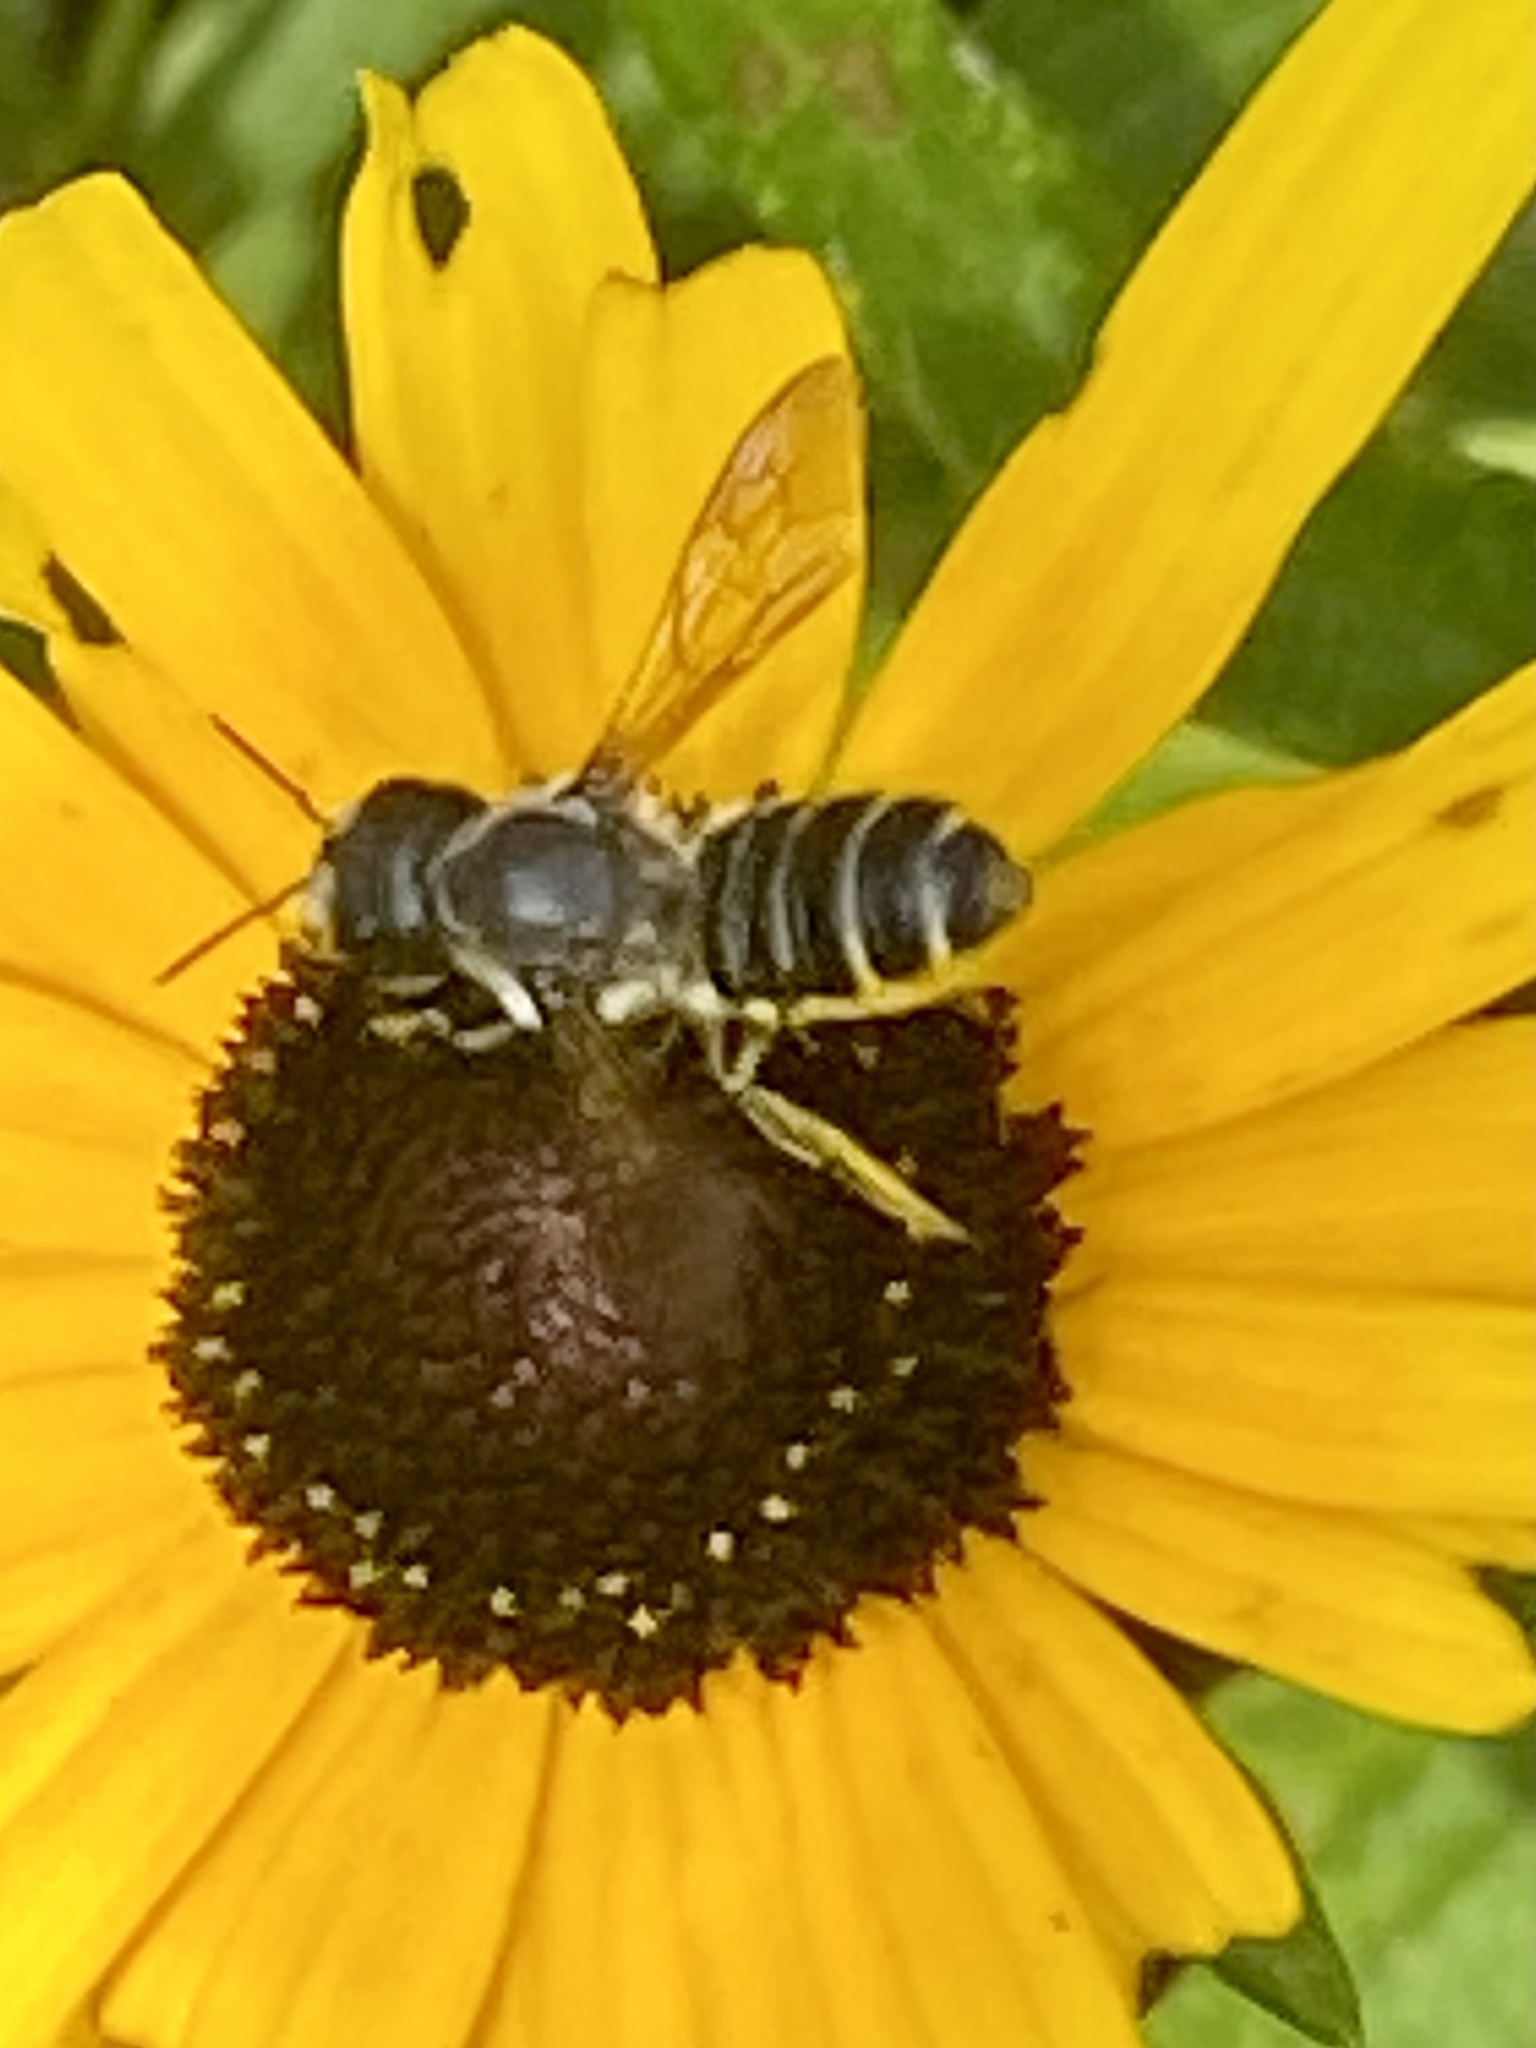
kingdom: Animalia
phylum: Arthropoda
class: Insecta
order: Hymenoptera
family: Megachilidae
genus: Megachile
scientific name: Megachile pugnata
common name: Pugnacious leafcutter bee
